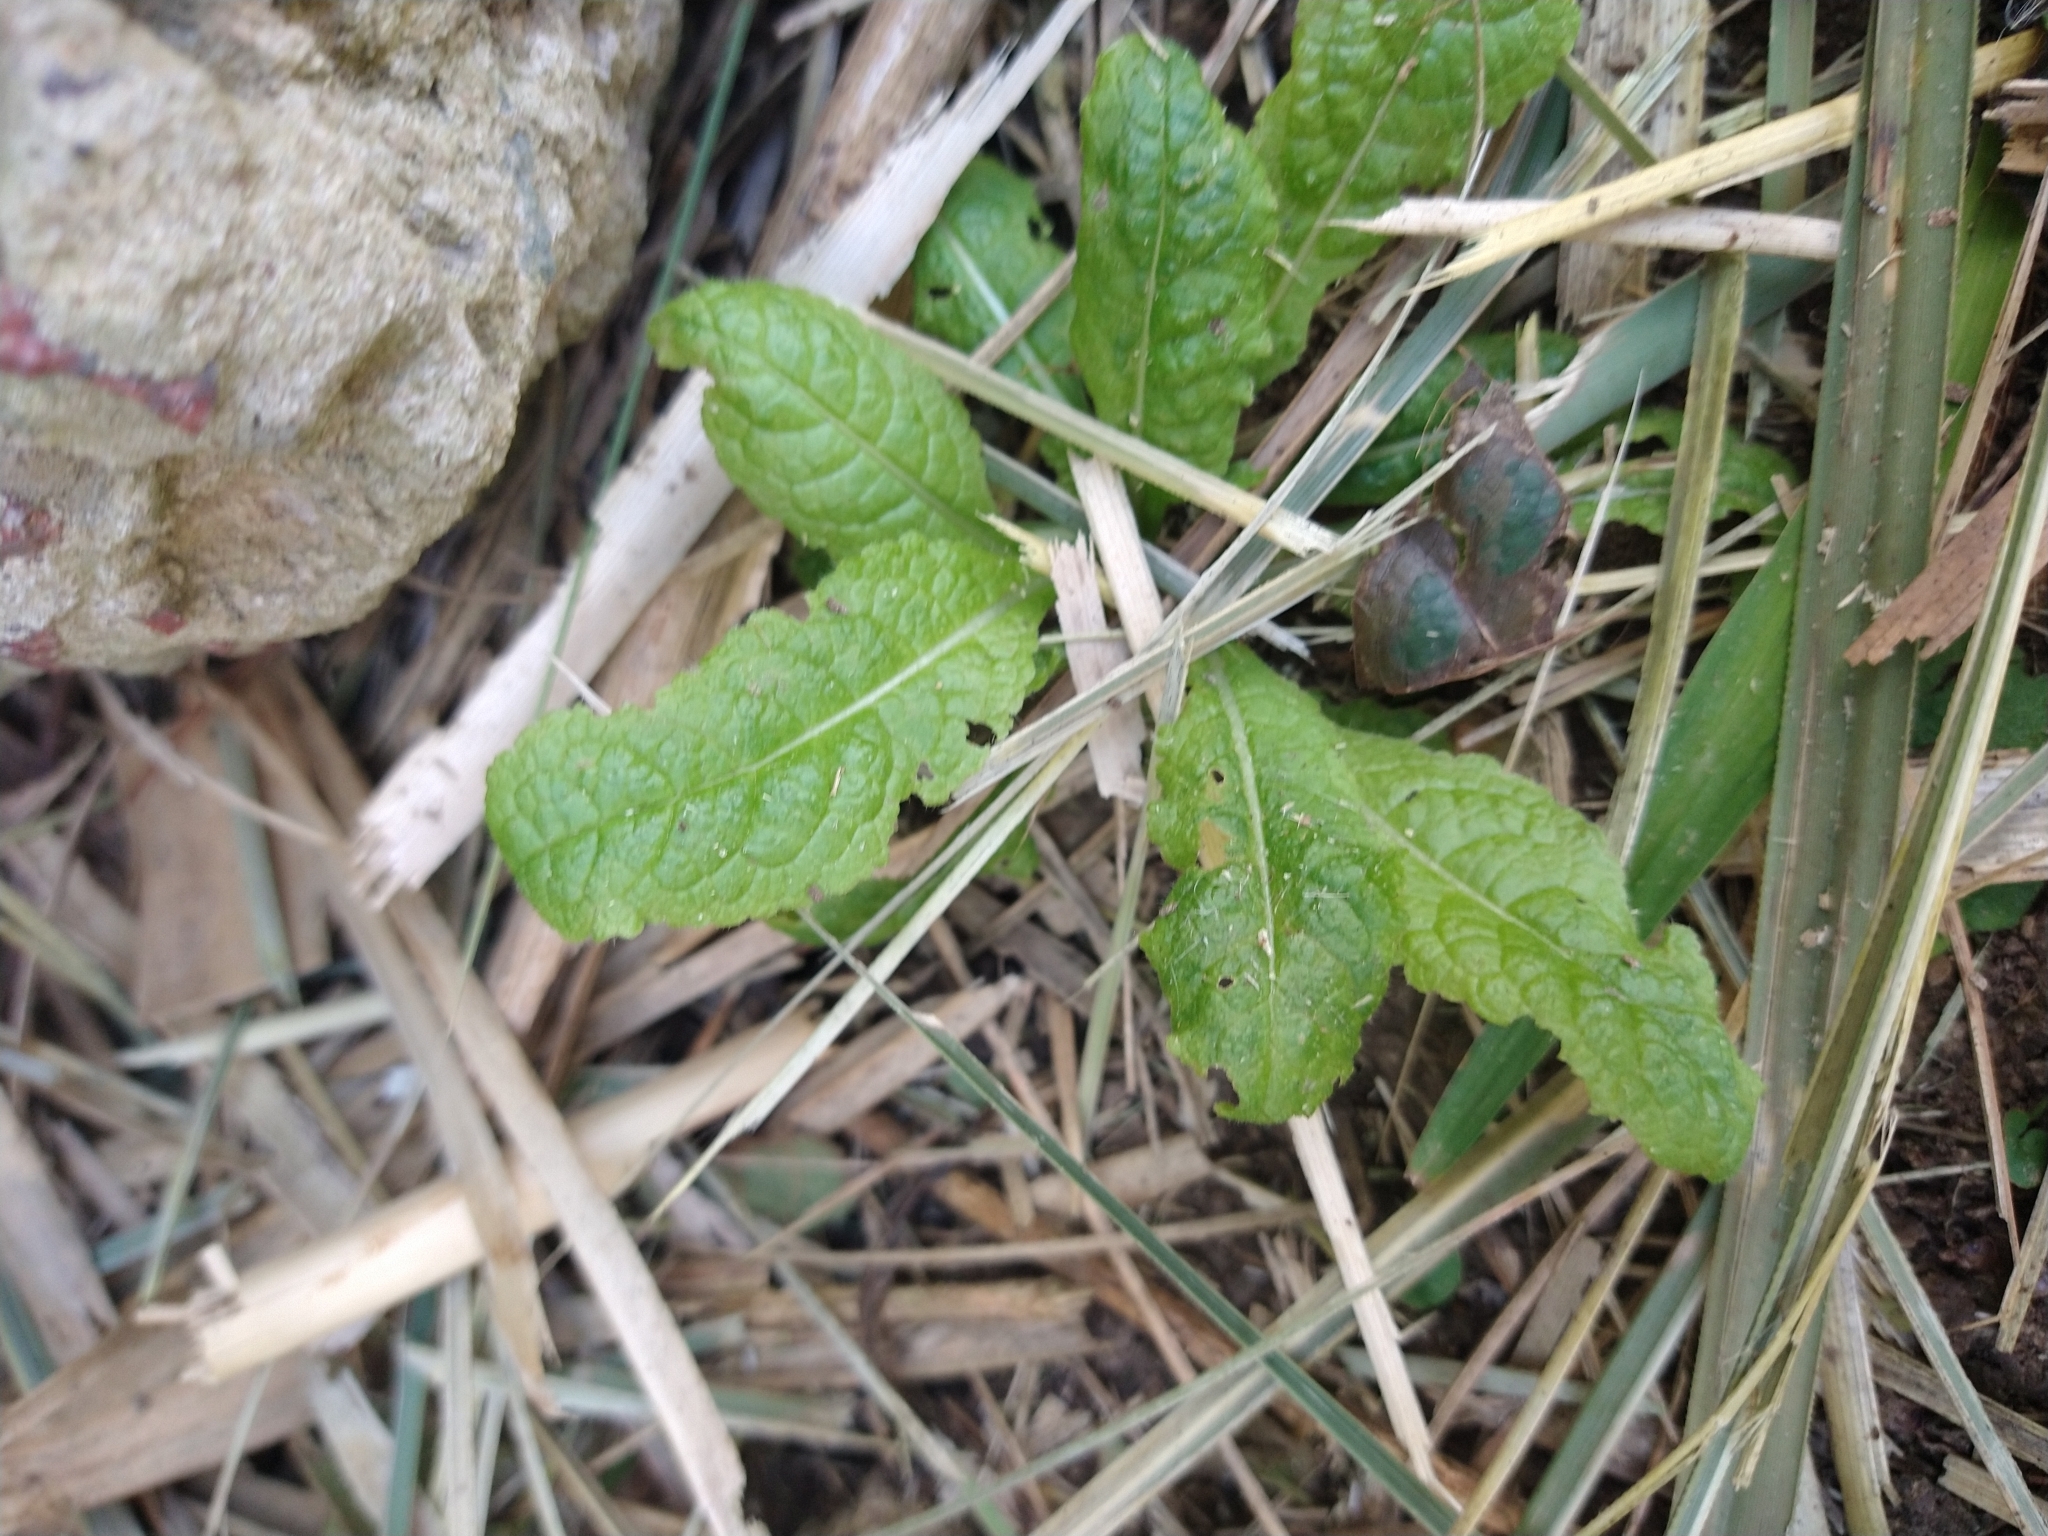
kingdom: Plantae
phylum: Tracheophyta
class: Magnoliopsida
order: Dipsacales
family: Caprifoliaceae
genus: Dipsacus
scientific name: Dipsacus fullonum
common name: Teasel
